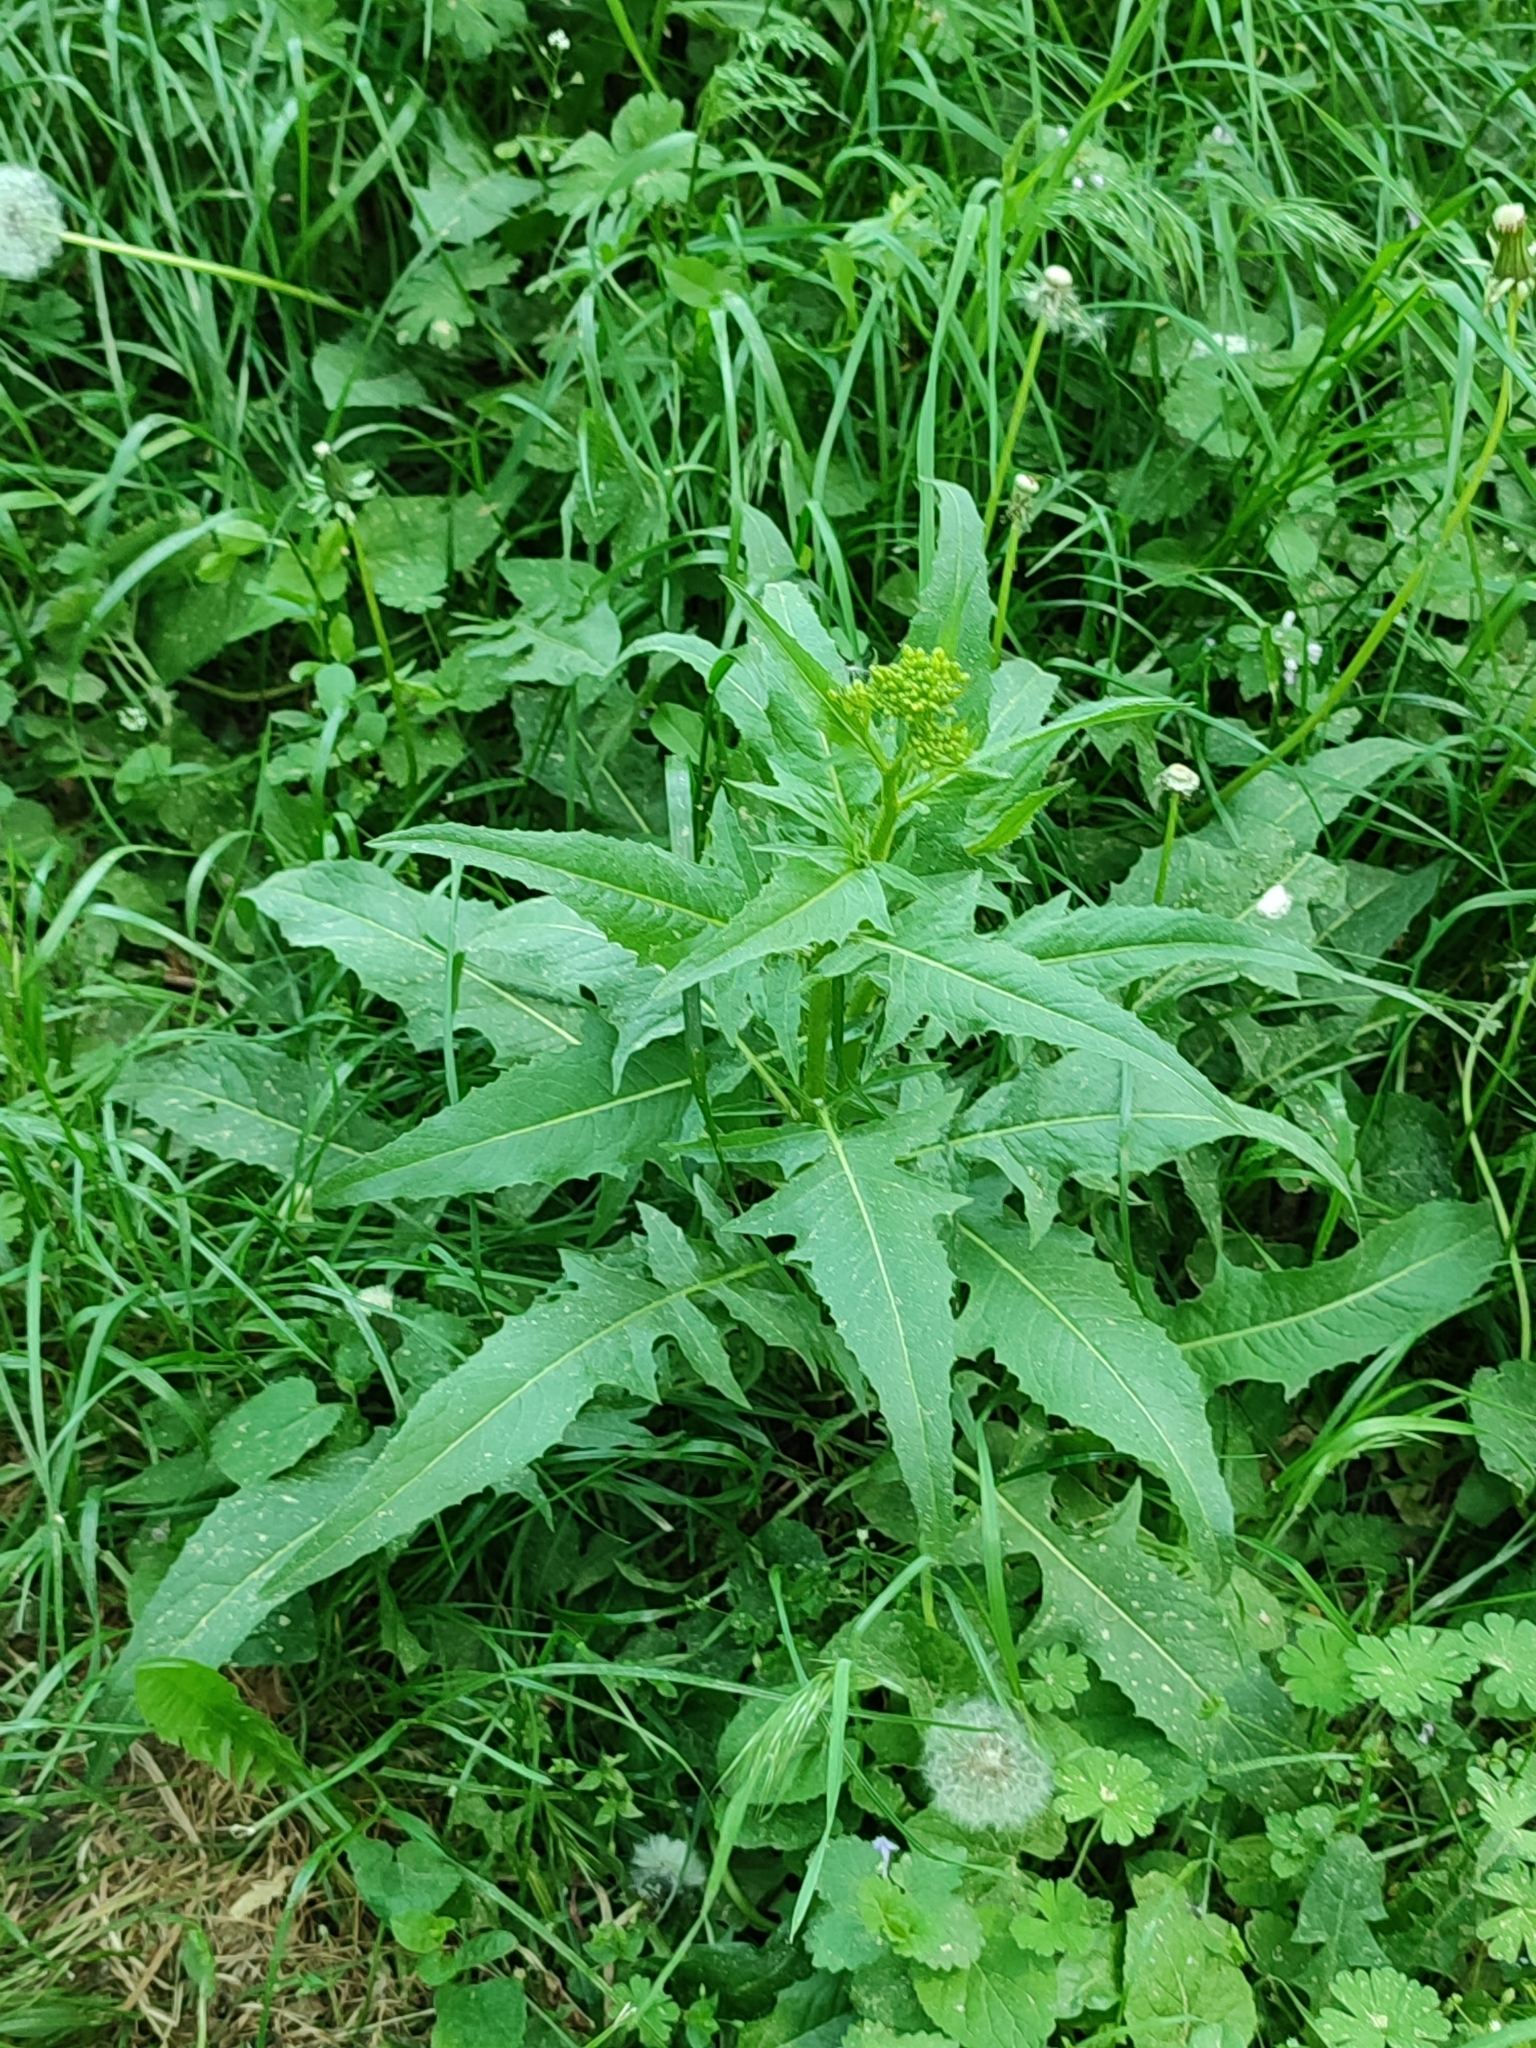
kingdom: Plantae
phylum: Tracheophyta
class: Magnoliopsida
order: Brassicales
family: Brassicaceae
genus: Bunias
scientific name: Bunias orientalis
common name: Warty-cabbage
